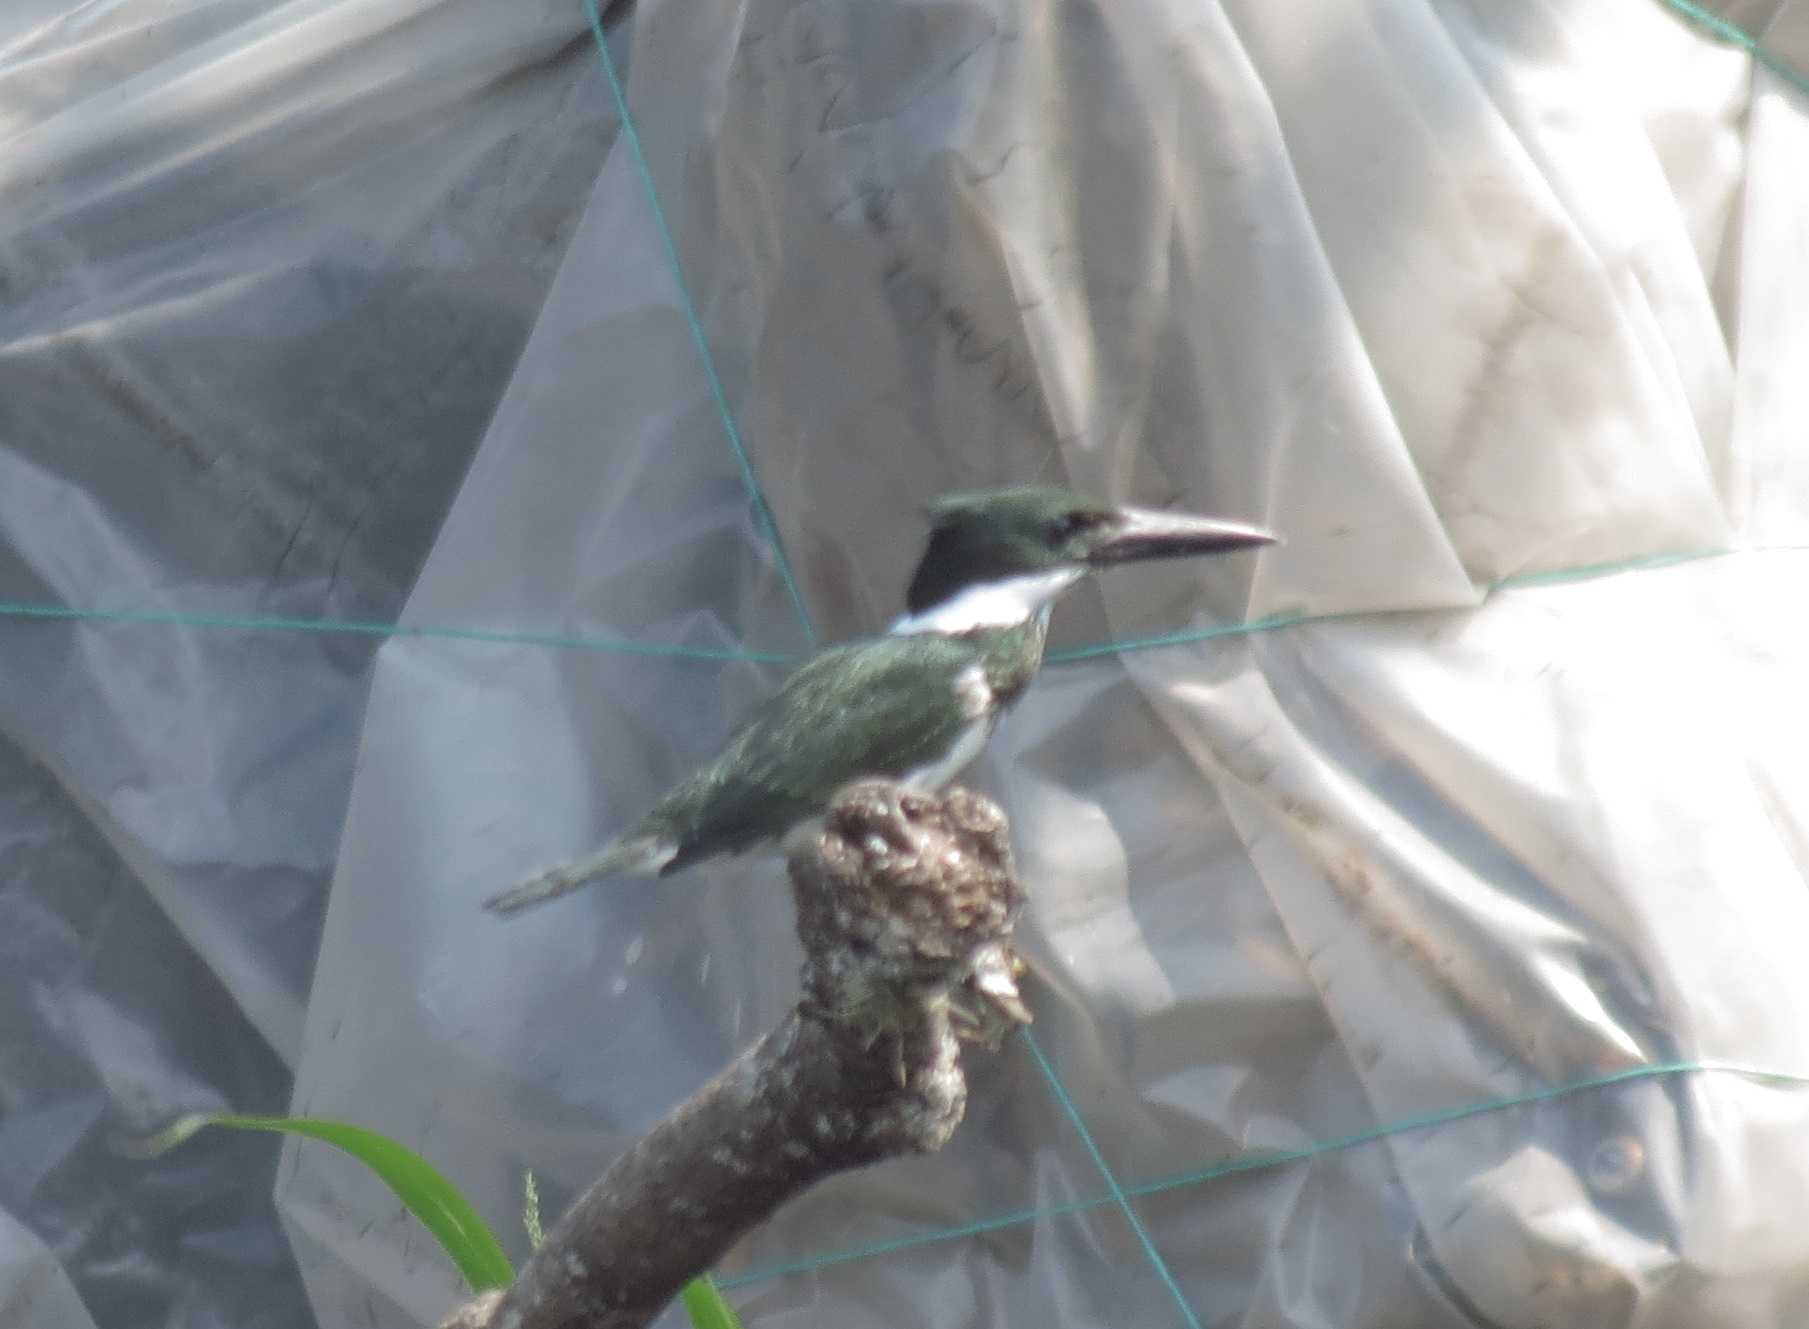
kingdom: Animalia
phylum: Chordata
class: Aves
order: Coraciiformes
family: Alcedinidae
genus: Chloroceryle
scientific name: Chloroceryle amazona
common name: Amazon kingfisher
